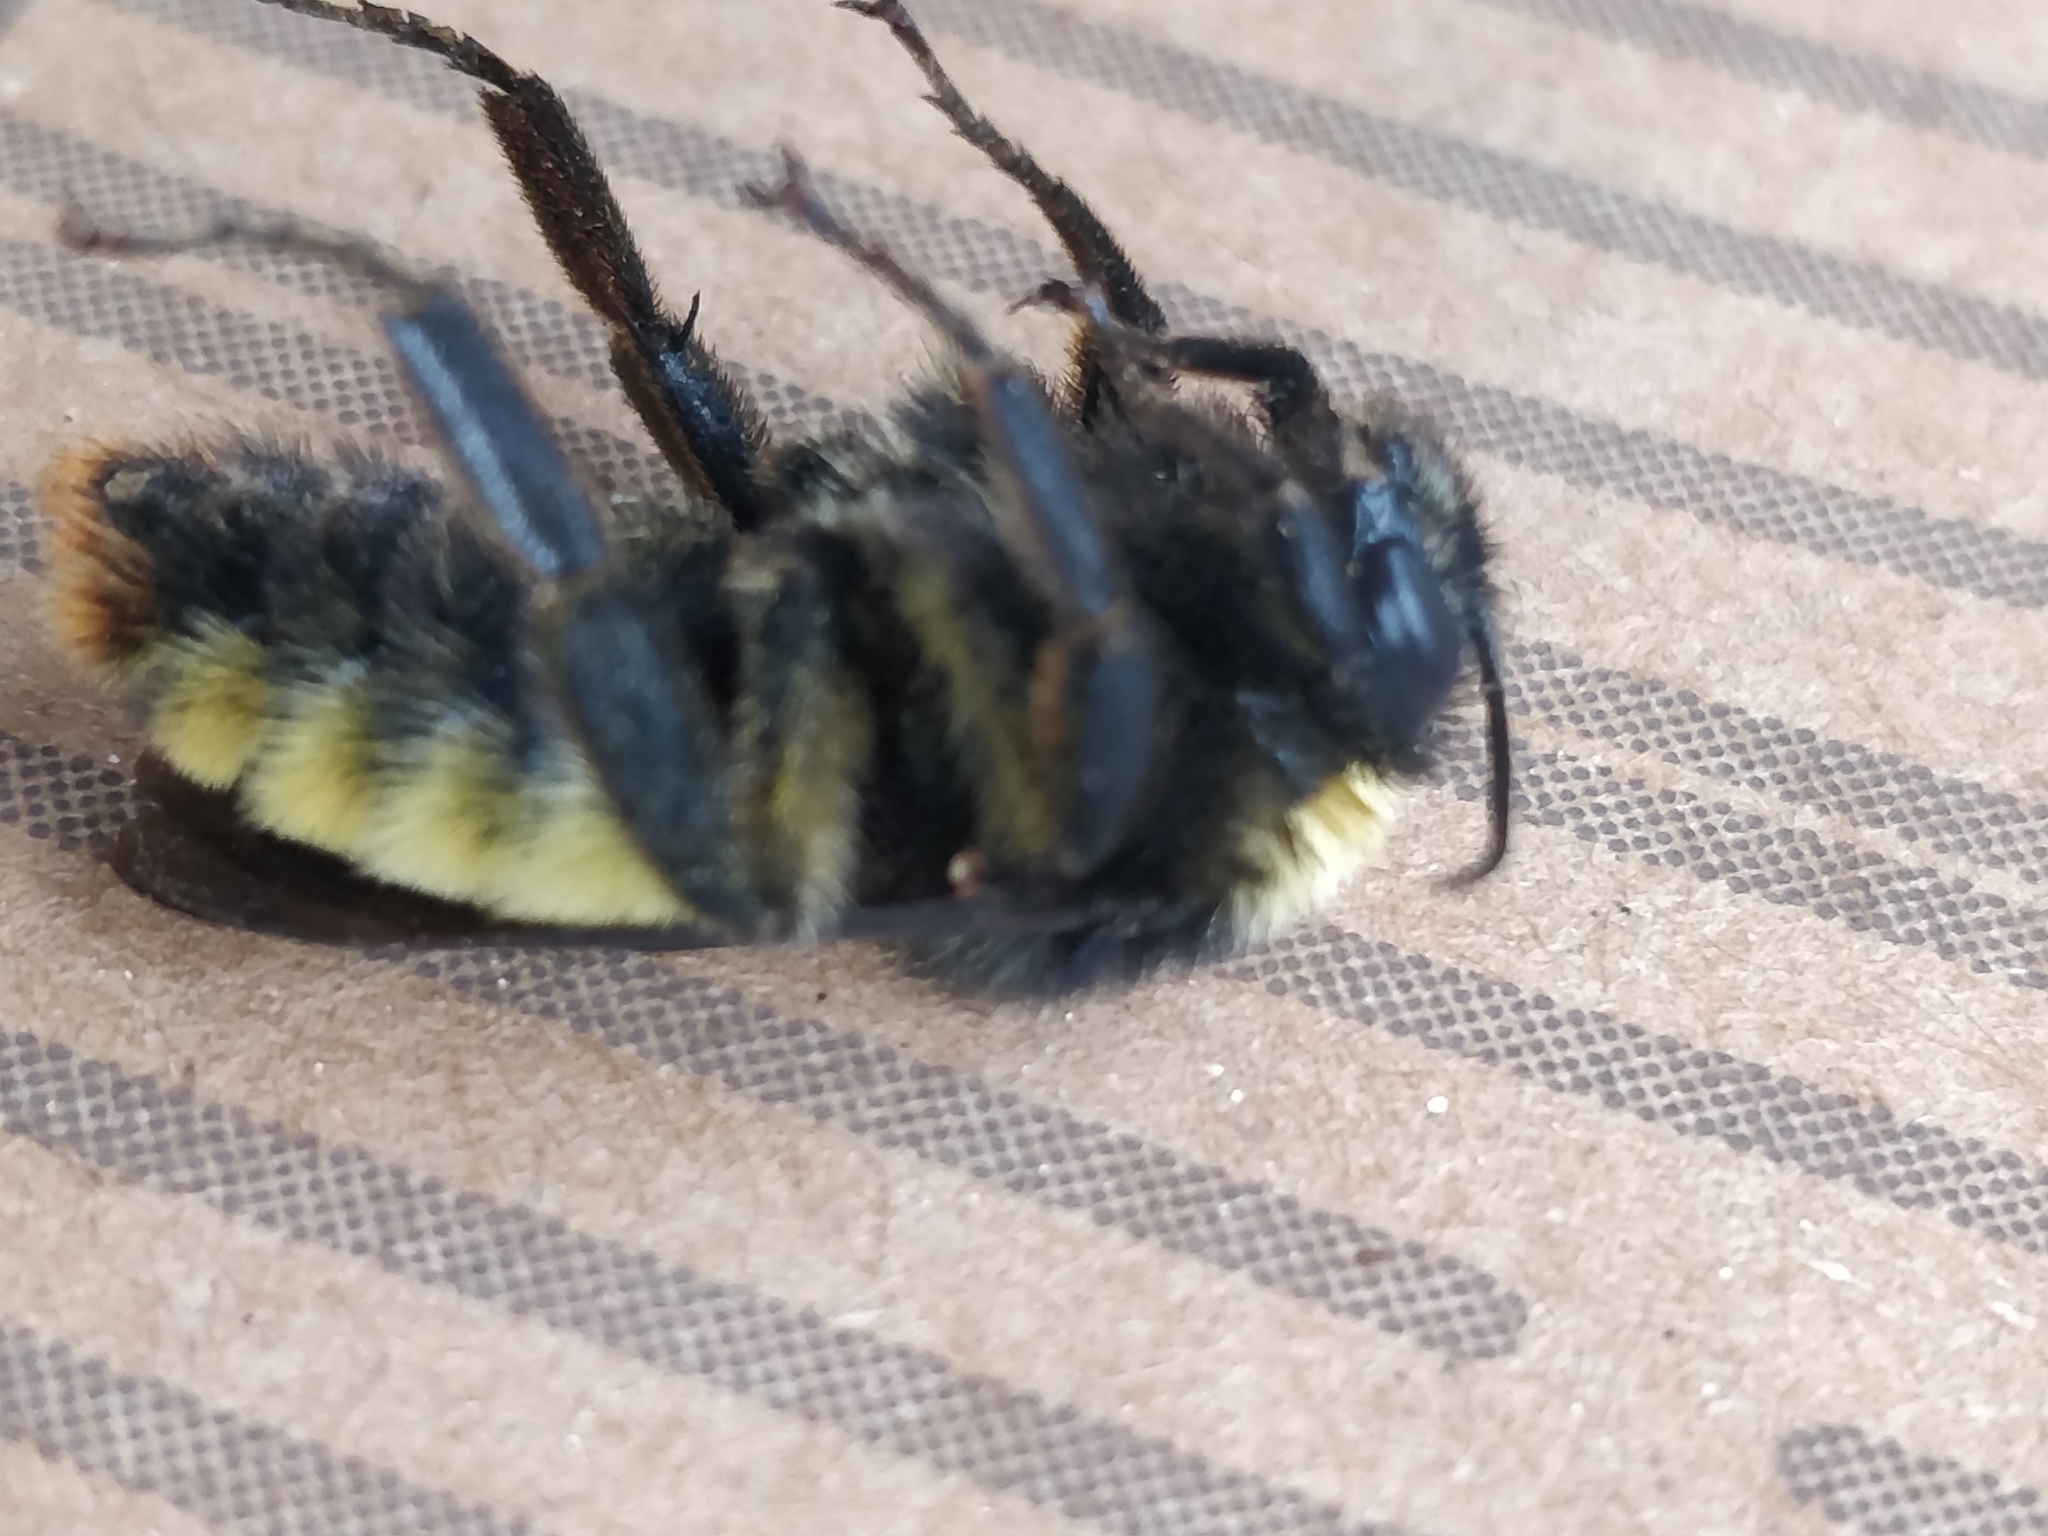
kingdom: Animalia
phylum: Arthropoda
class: Insecta
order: Hymenoptera
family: Apidae
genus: Bombus
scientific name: Bombus pensylvanicus
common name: Bumble bee
